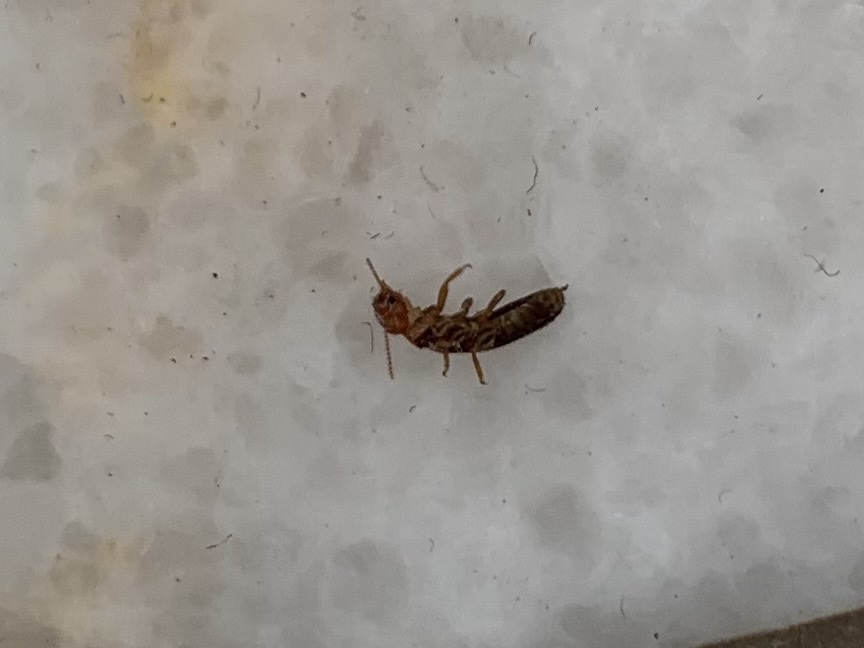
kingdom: Animalia
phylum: Arthropoda
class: Insecta
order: Blattodea
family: Kalotermitidae
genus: Incisitermes
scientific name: Incisitermes minor
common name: Termite
